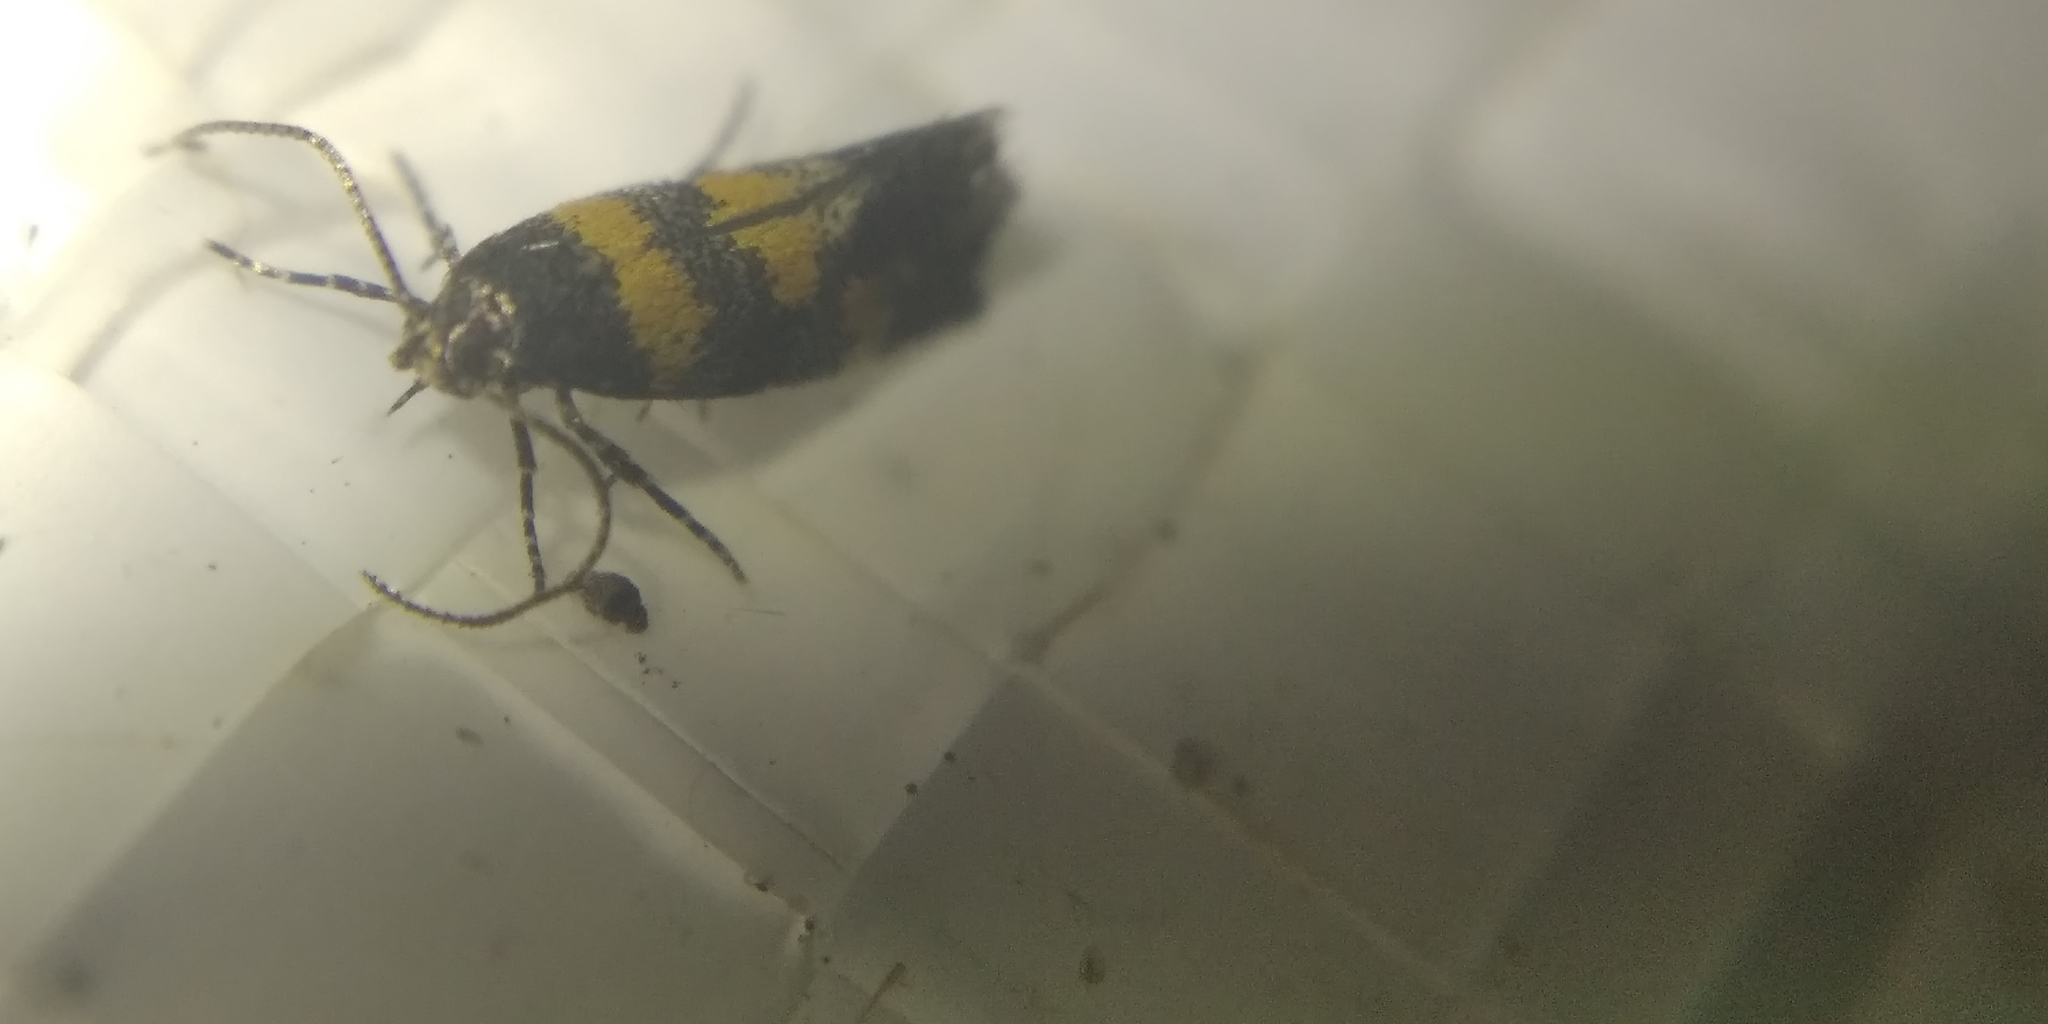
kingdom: Animalia
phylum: Arthropoda
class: Insecta
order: Lepidoptera
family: Gelechiidae
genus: Chrysoesthia
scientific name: Chrysoesthia sexguttella
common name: Moth
